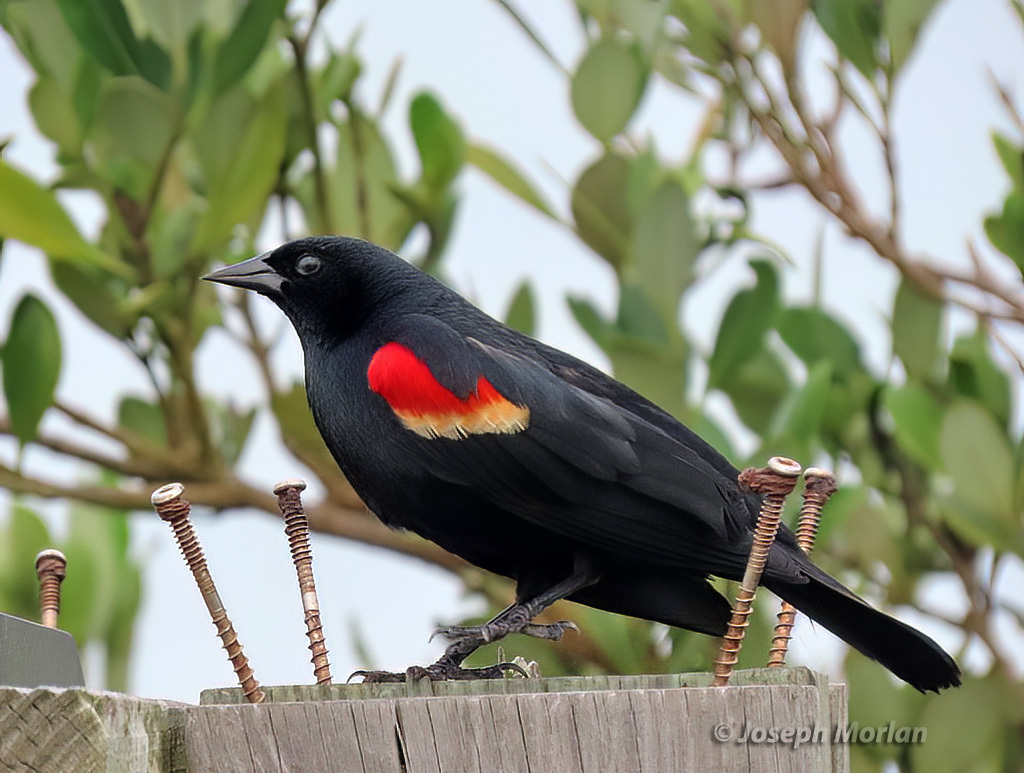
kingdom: Animalia
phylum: Chordata
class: Aves
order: Passeriformes
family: Icteridae
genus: Agelaius
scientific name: Agelaius phoeniceus
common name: Red-winged blackbird
